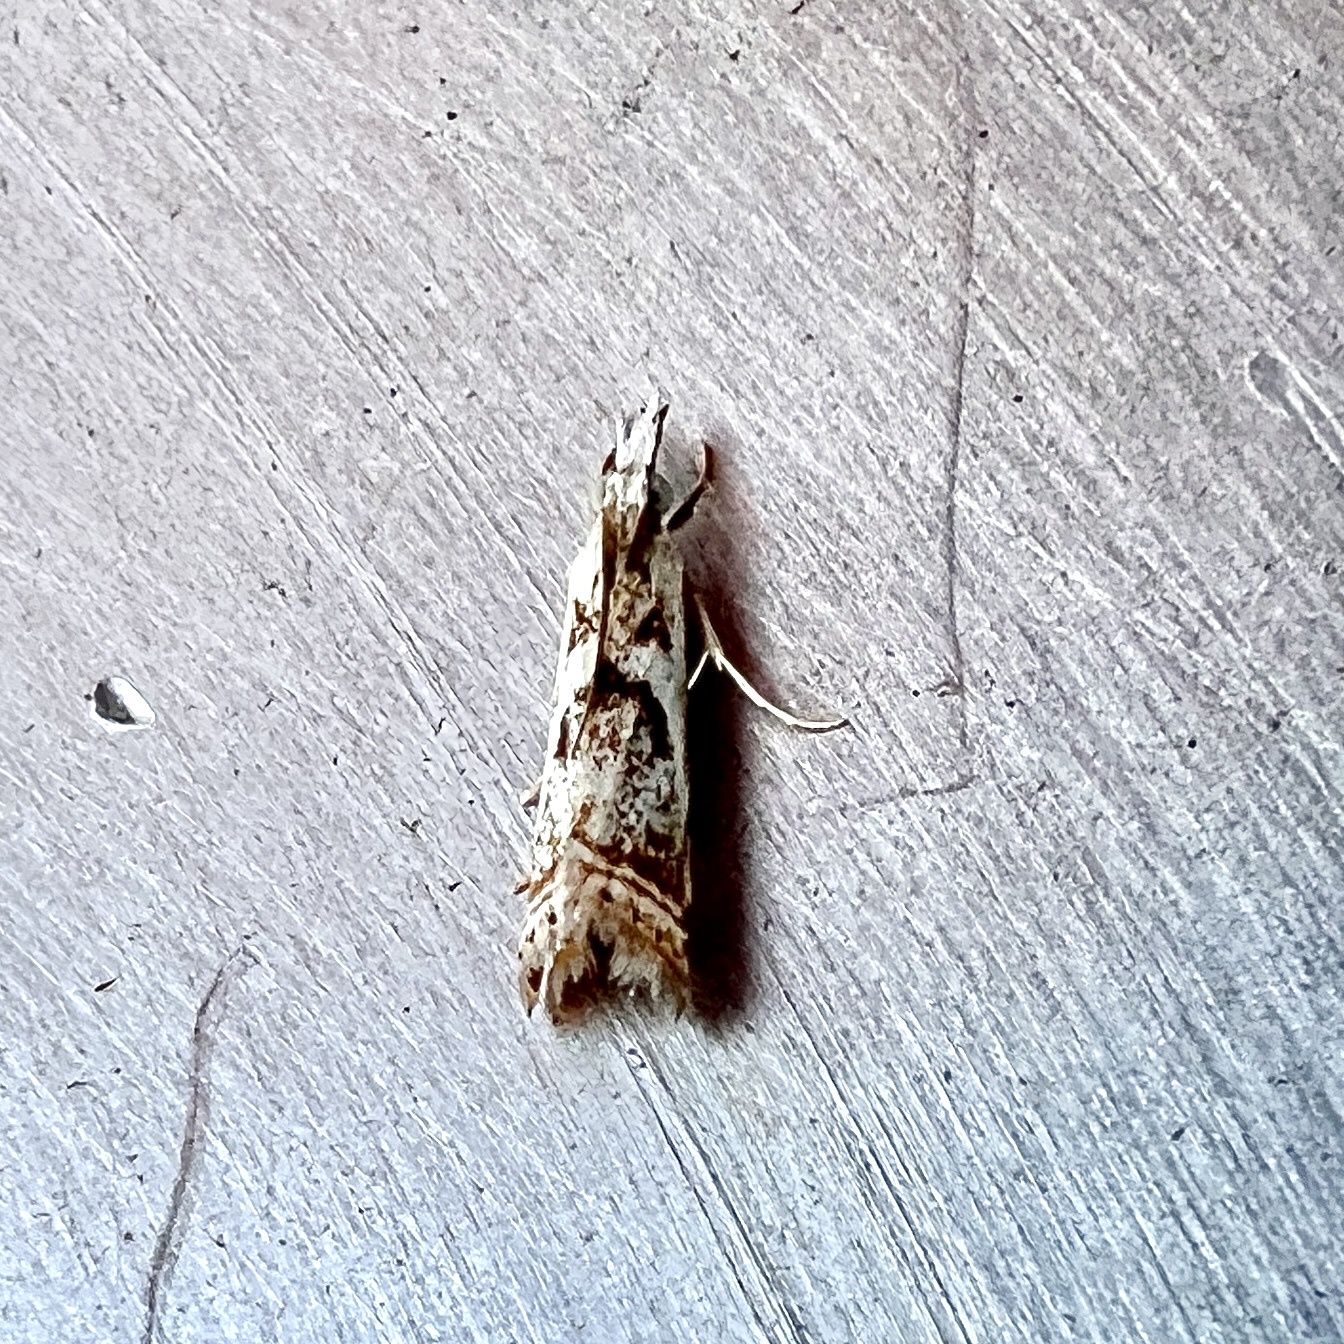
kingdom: Animalia
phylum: Arthropoda
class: Insecta
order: Lepidoptera
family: Crambidae
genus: Microcrambus
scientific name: Microcrambus elegans
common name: Elegant grass-veneer
